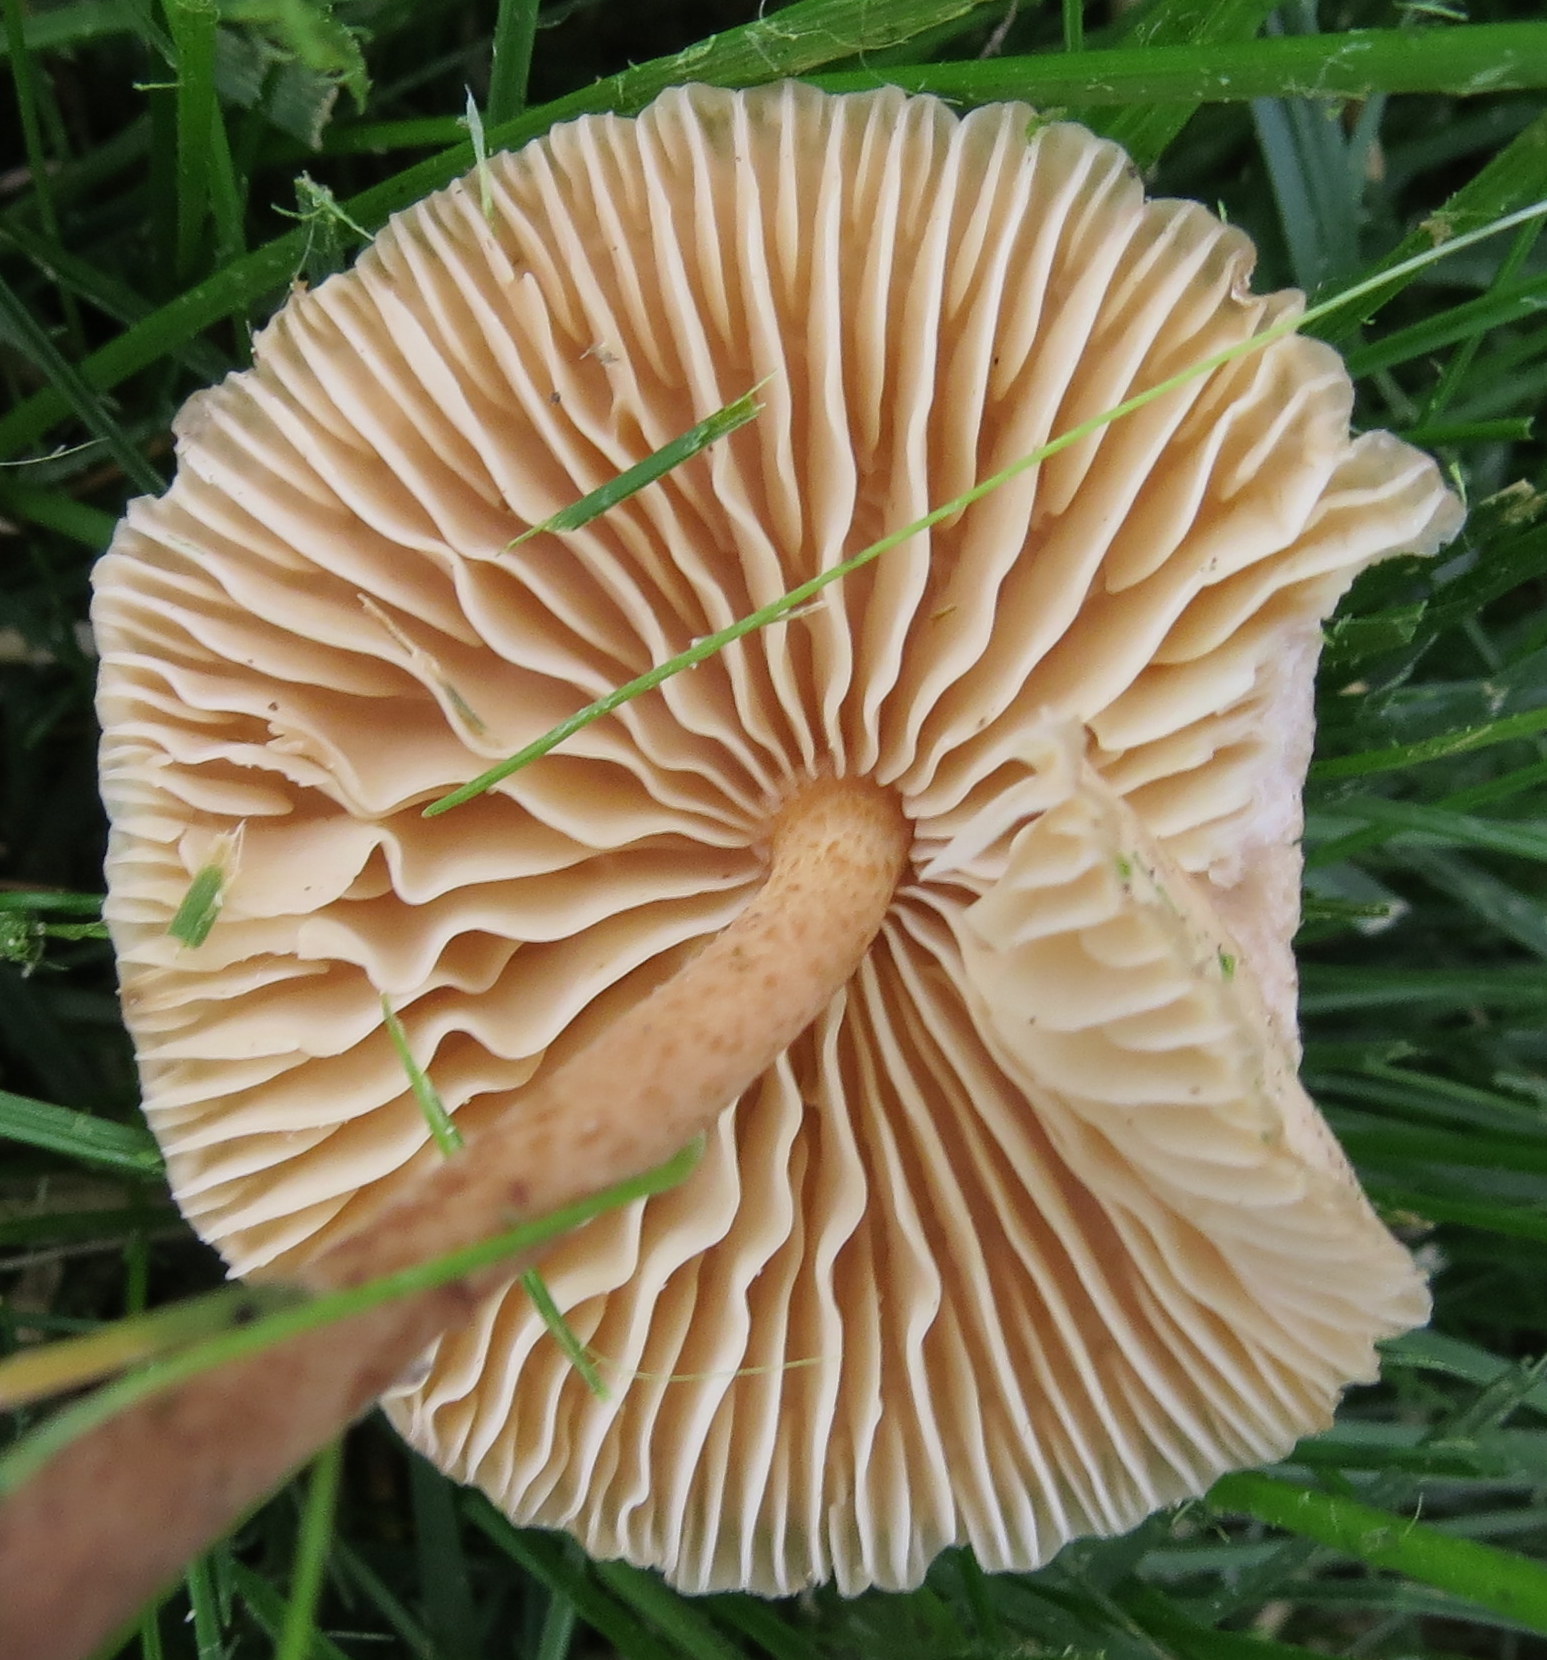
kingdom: Fungi
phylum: Basidiomycota
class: Agaricomycetes
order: Agaricales
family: Marasmiaceae
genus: Marasmius
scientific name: Marasmius oreades
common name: Fairy ring champignon
